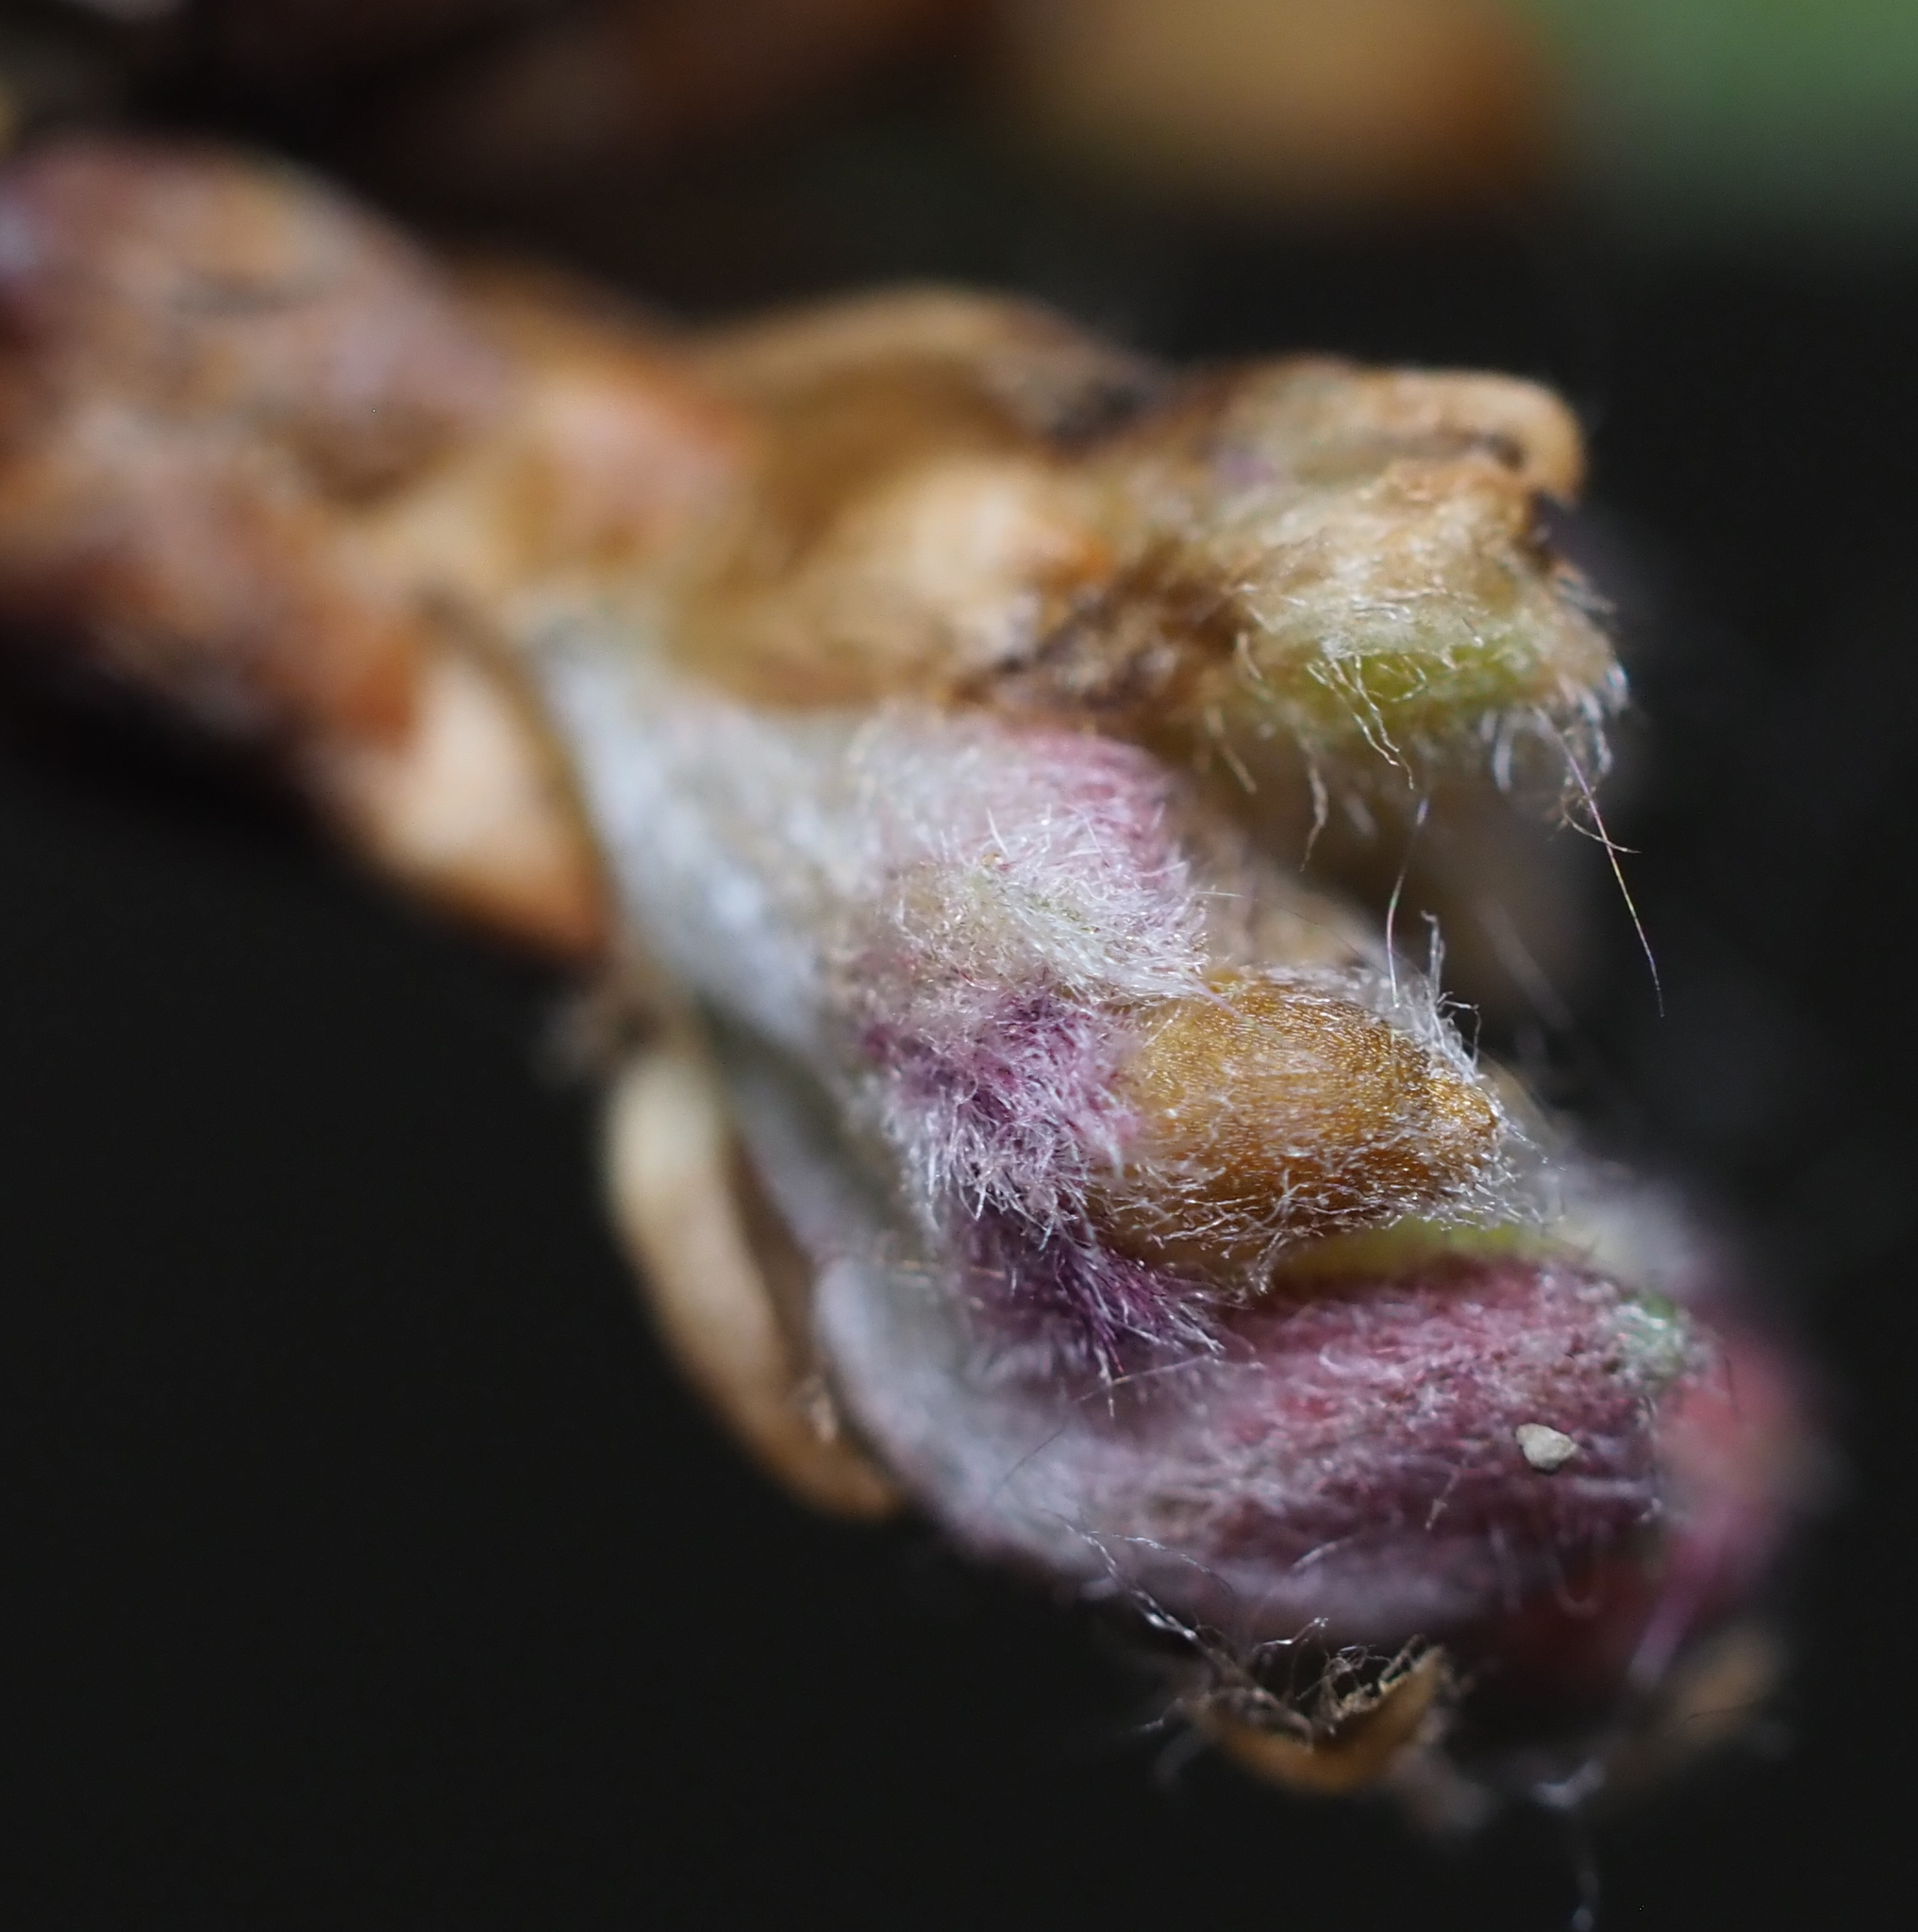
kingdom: Animalia
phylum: Arthropoda
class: Insecta
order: Hymenoptera
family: Cynipidae
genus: Neuroterus
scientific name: Neuroterus minutulus
